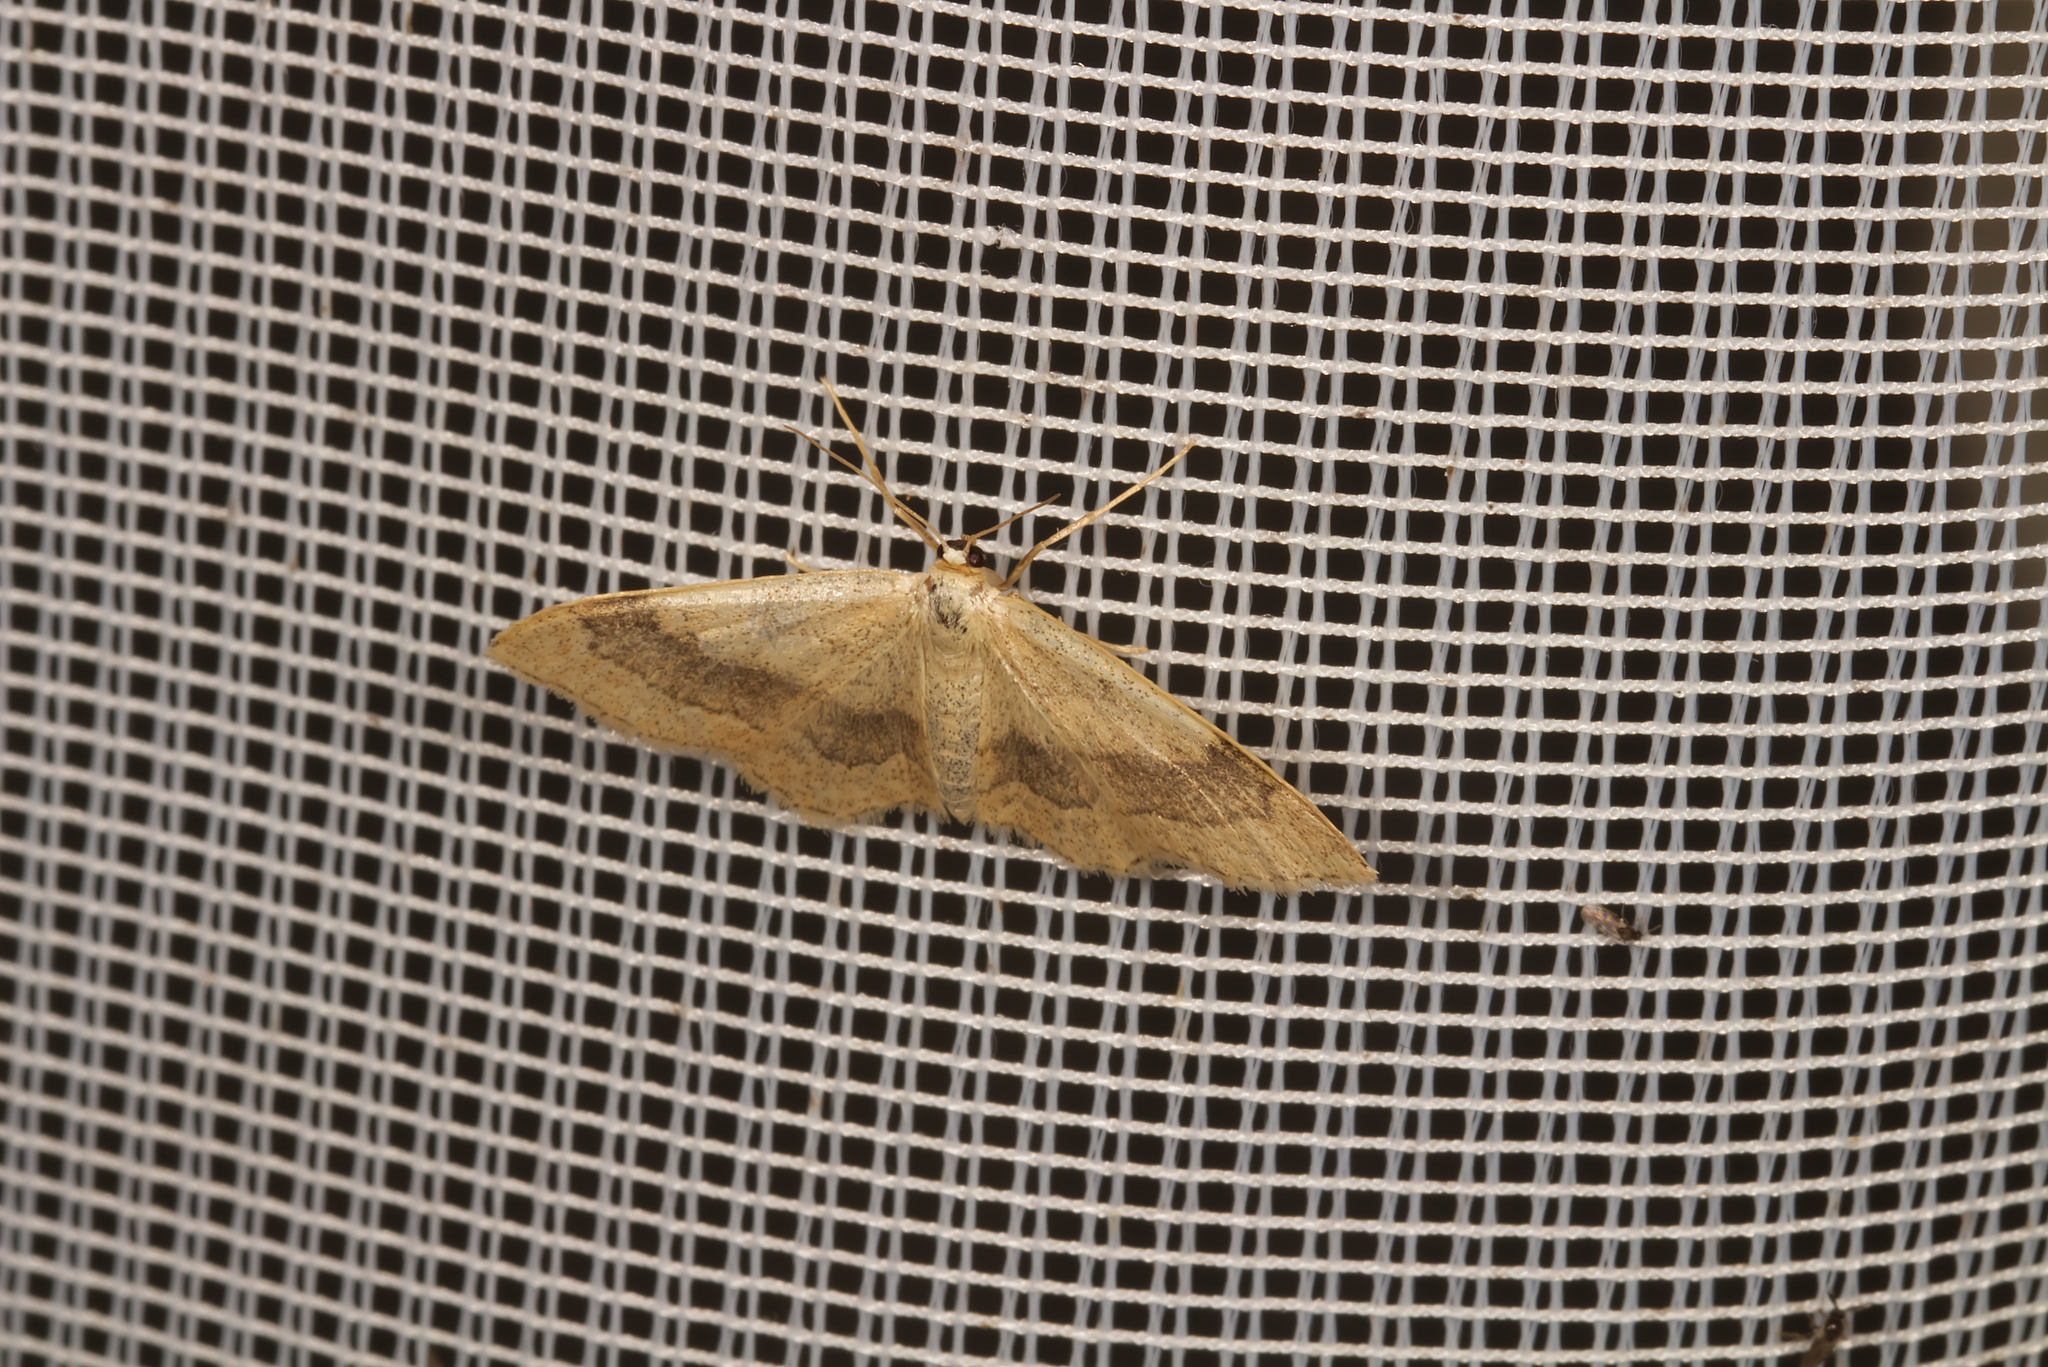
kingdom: Animalia
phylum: Arthropoda
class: Insecta
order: Lepidoptera
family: Geometridae
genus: Idaea
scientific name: Idaea aversata
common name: Riband wave
